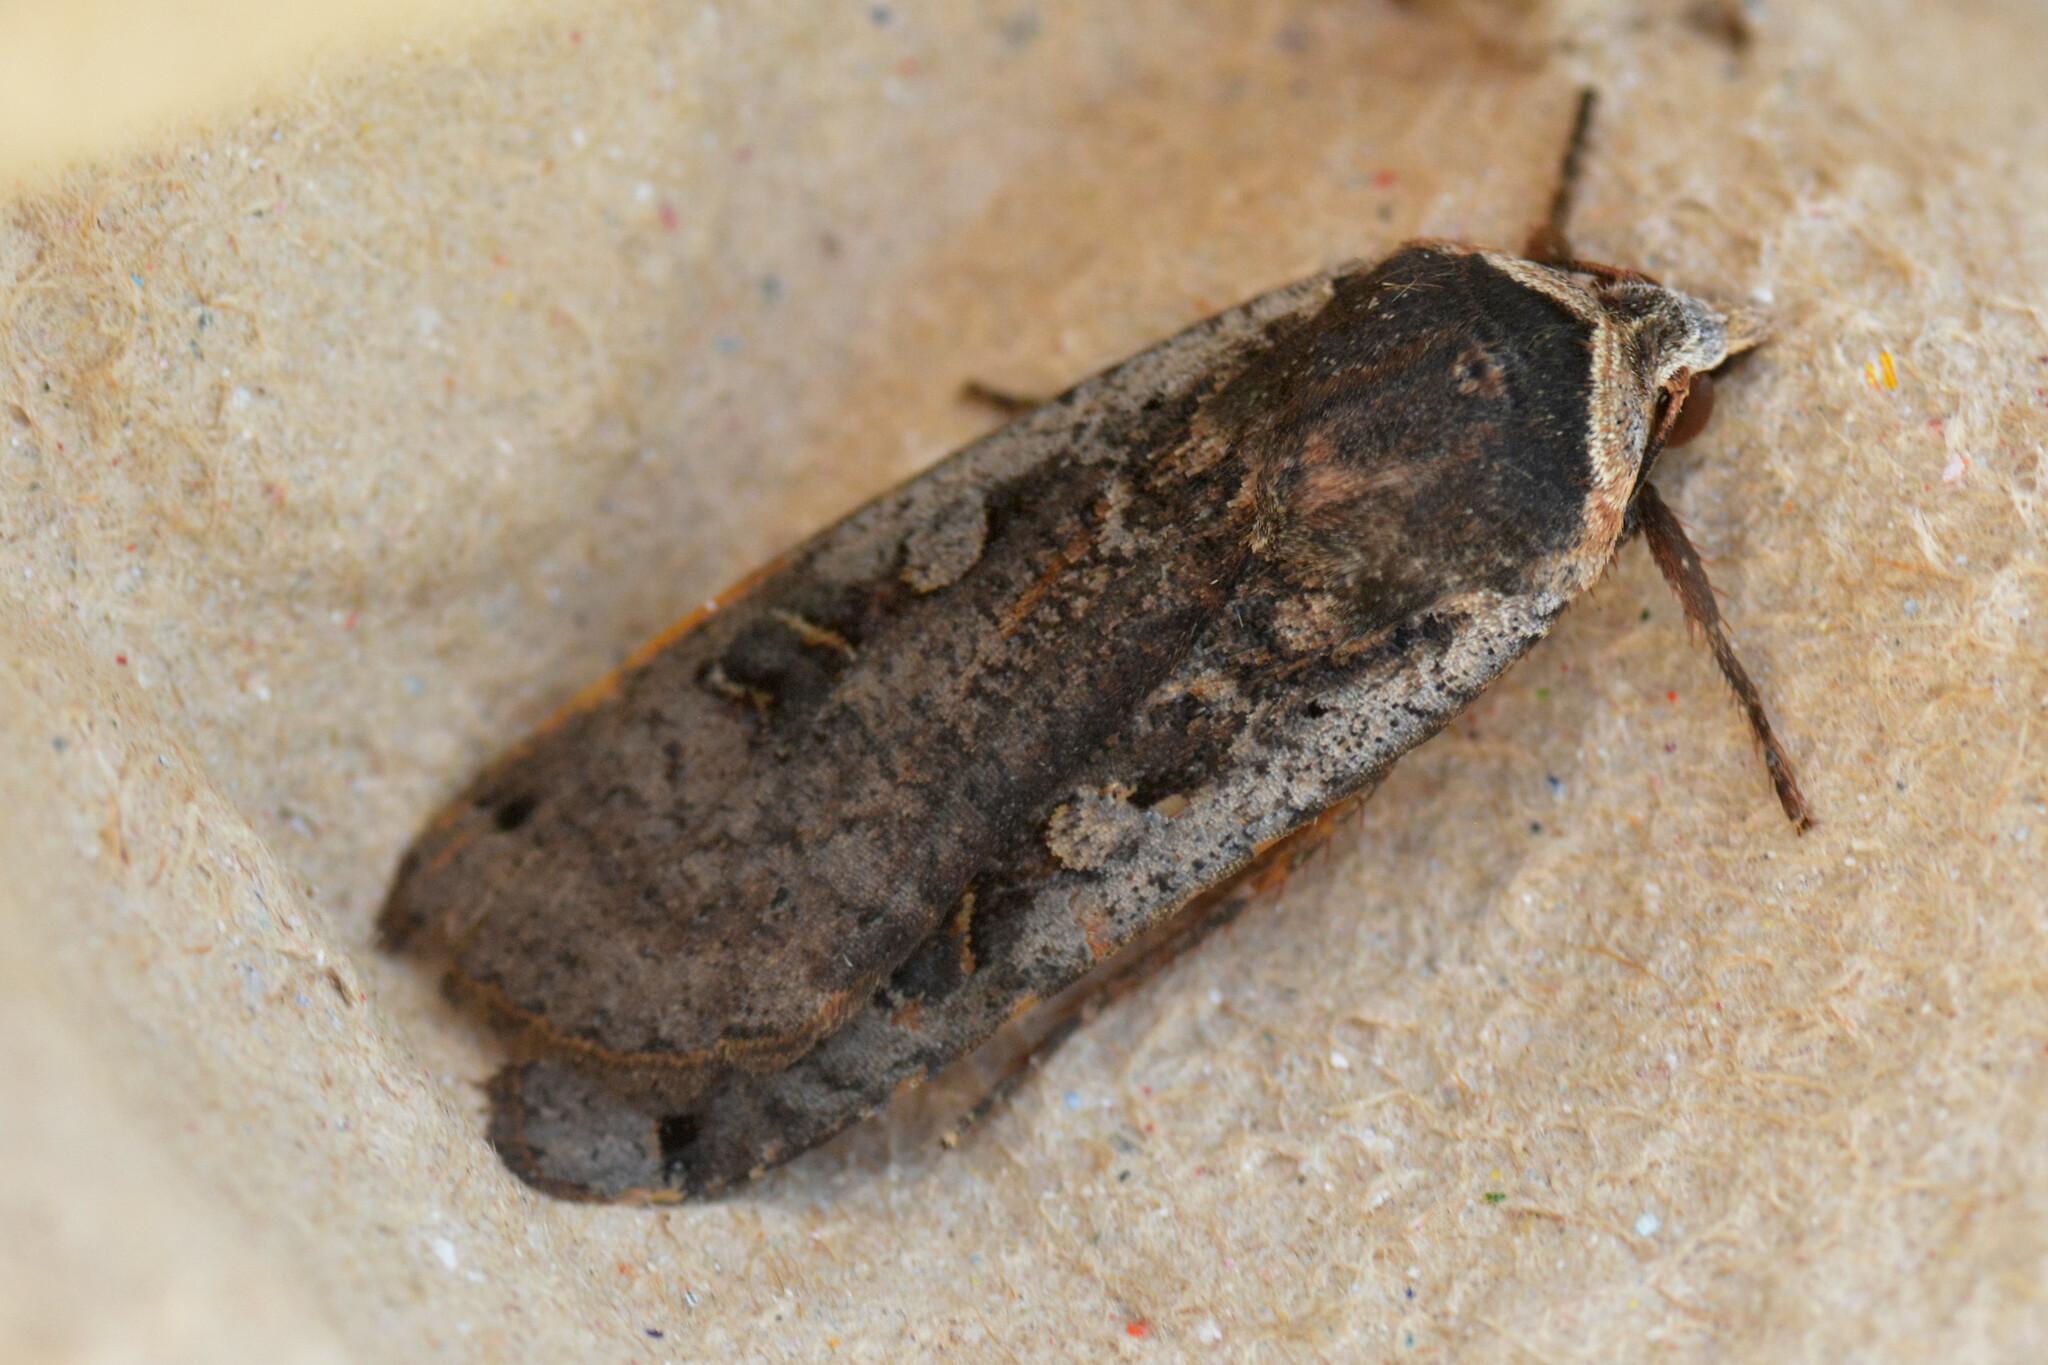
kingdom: Animalia
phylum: Arthropoda
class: Insecta
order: Lepidoptera
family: Noctuidae
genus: Noctua
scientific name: Noctua pronuba
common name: Large yellow underwing
